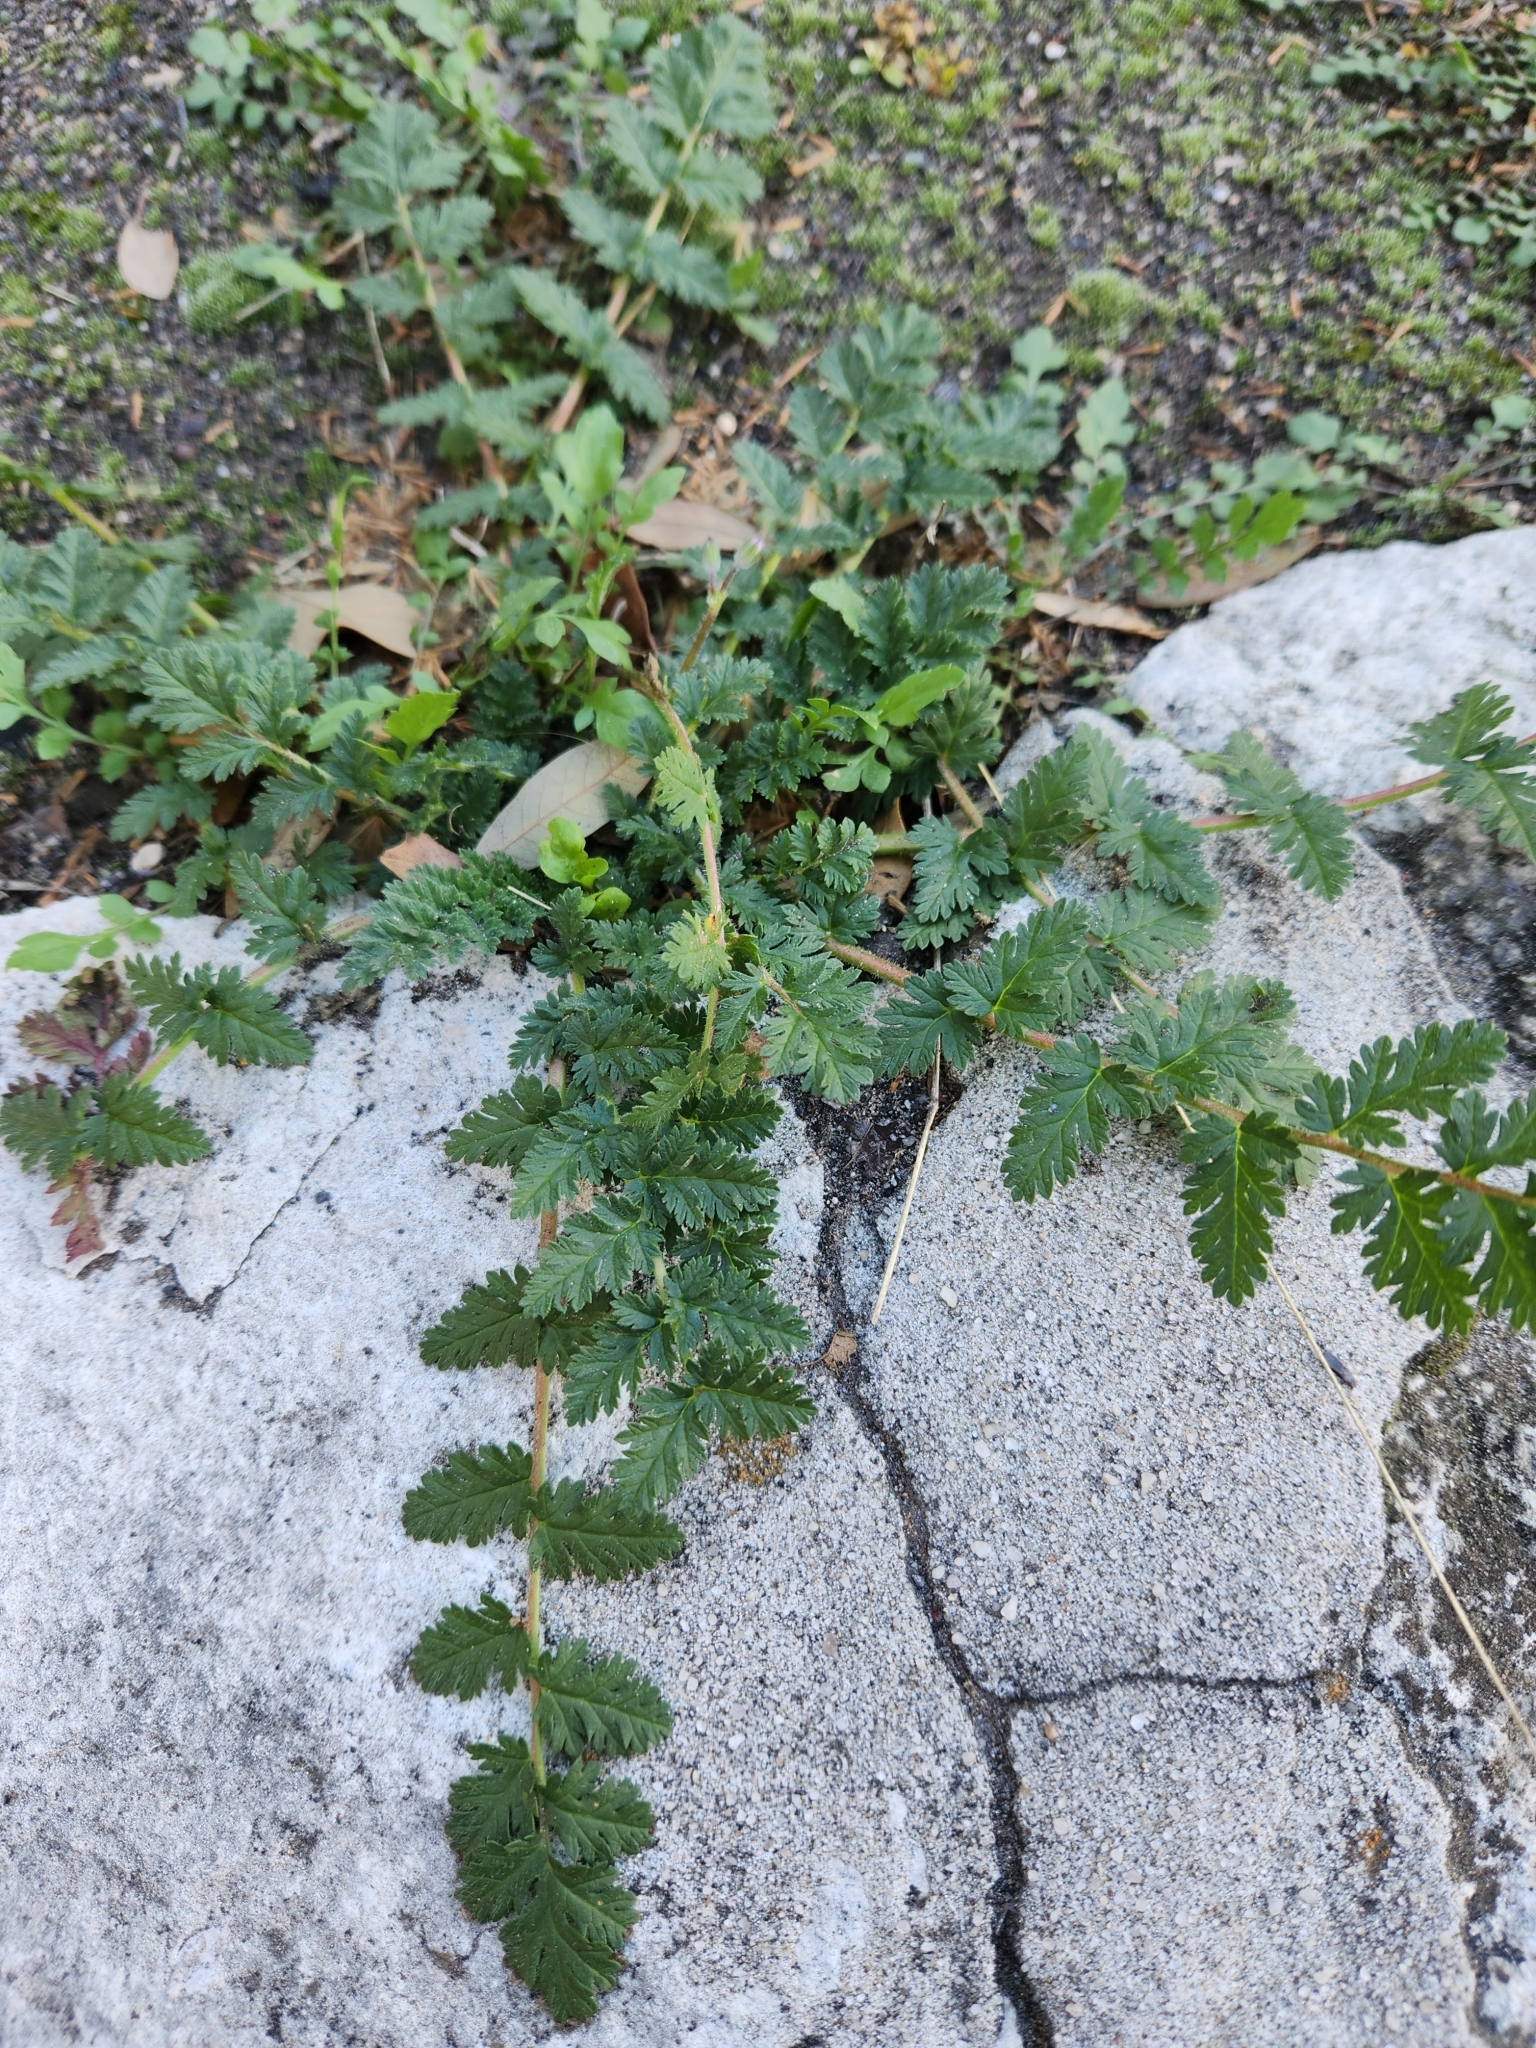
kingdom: Plantae
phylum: Tracheophyta
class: Magnoliopsida
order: Geraniales
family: Geraniaceae
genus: Erodium
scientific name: Erodium cicutarium
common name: Common stork's-bill
